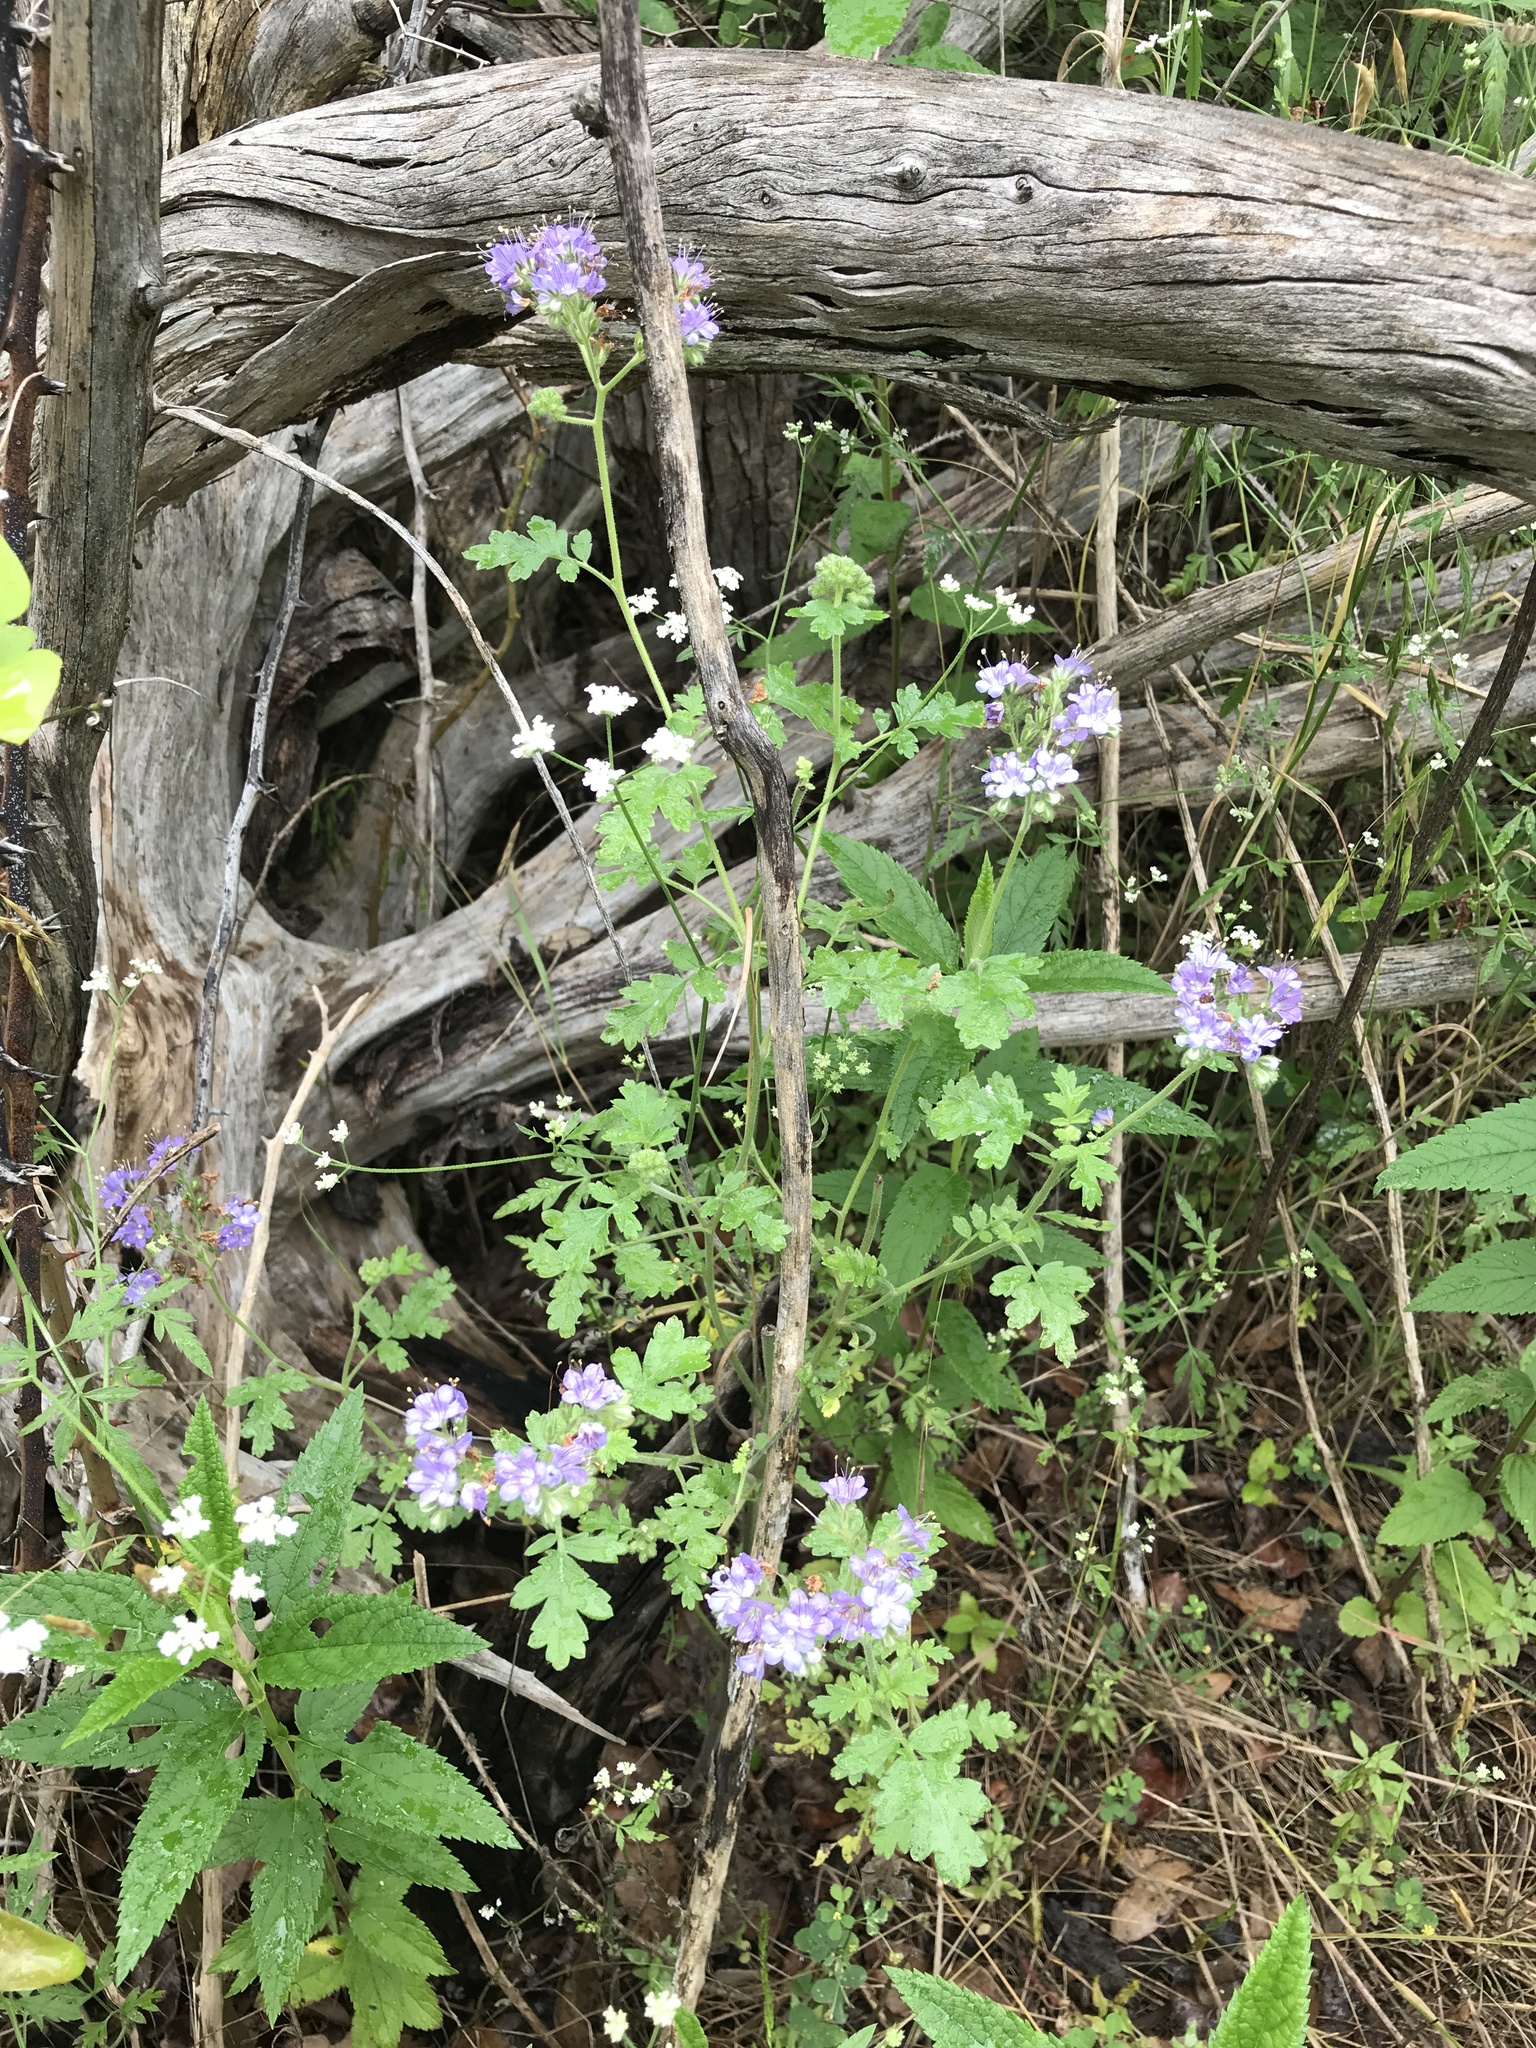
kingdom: Plantae
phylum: Tracheophyta
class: Magnoliopsida
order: Boraginales
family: Hydrophyllaceae
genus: Phacelia
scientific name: Phacelia congesta
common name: Blue curls
